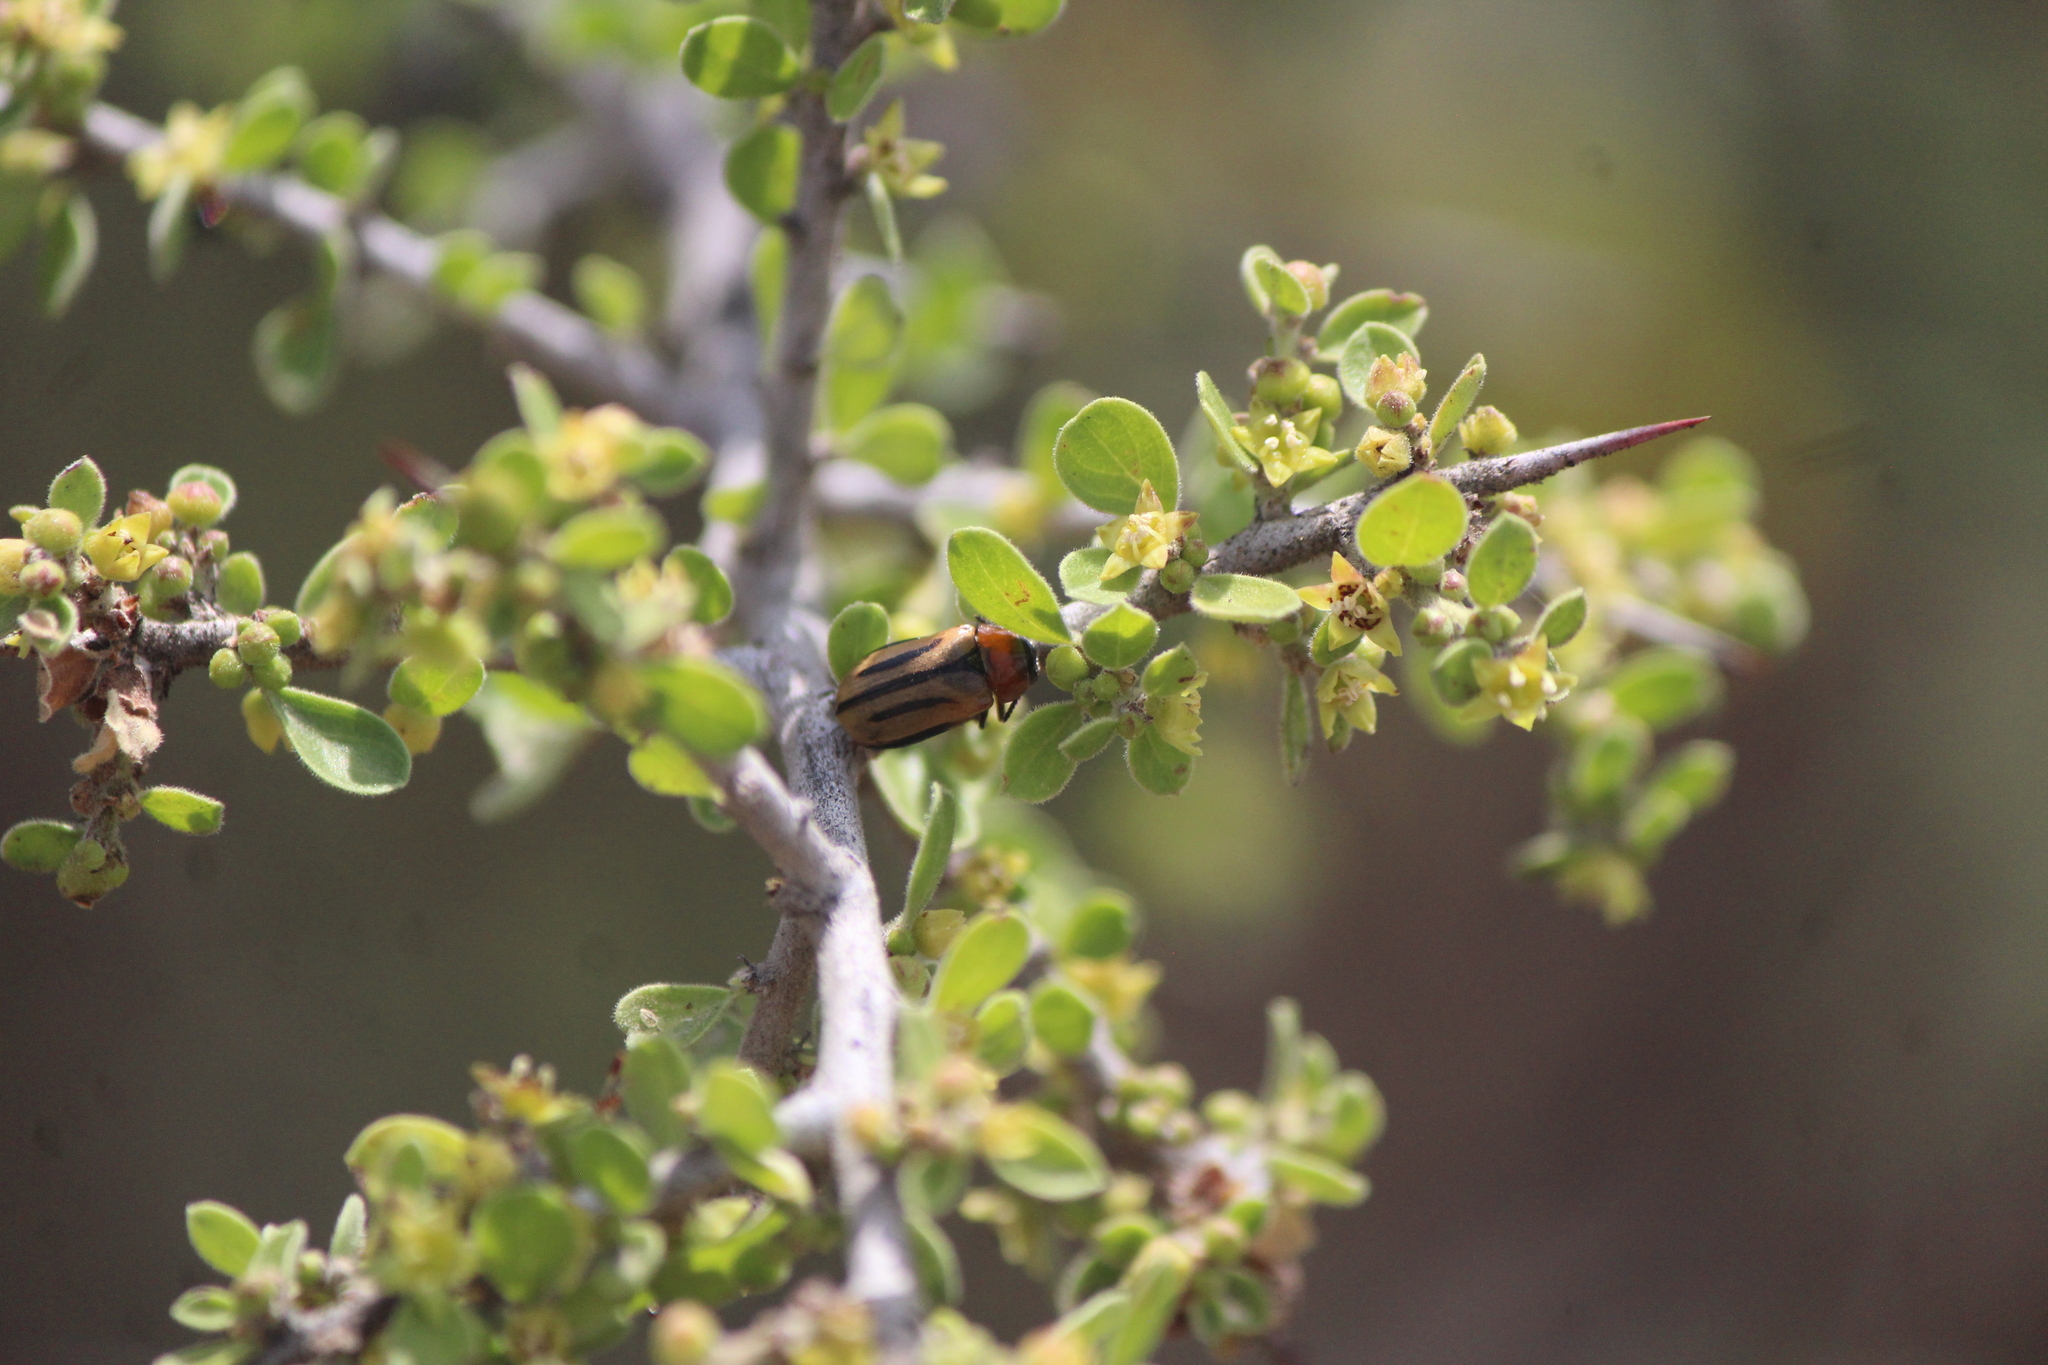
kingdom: Animalia
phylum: Arthropoda
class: Insecta
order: Coleoptera
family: Chrysomelidae
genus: Anomoea
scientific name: Anomoea rufifrons
